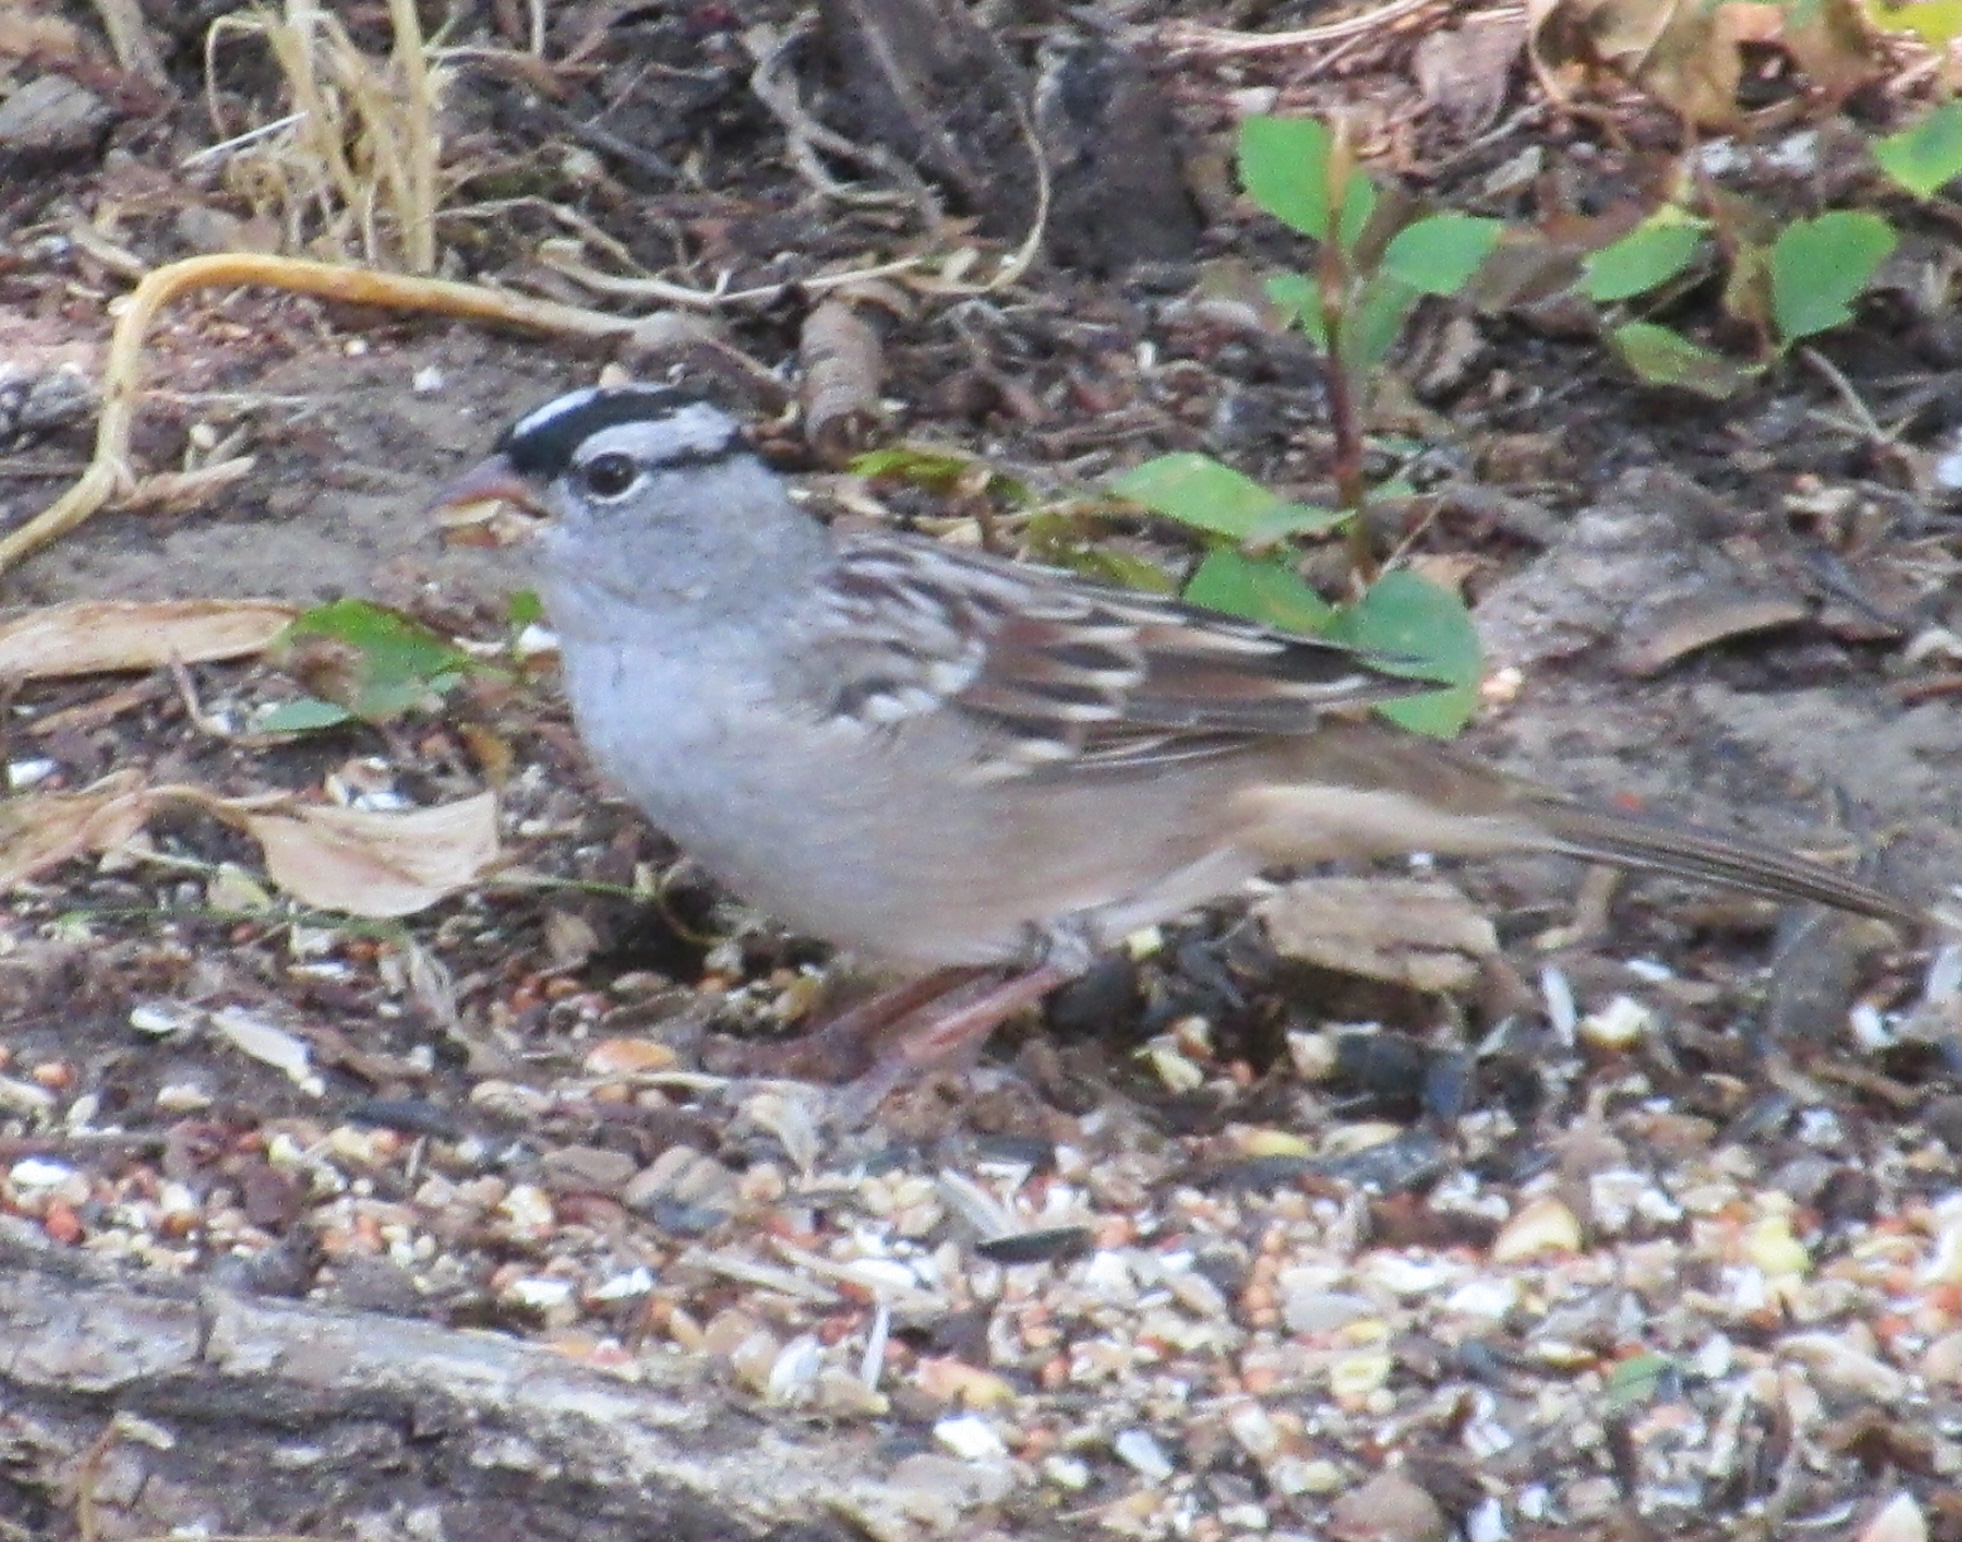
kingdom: Animalia
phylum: Chordata
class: Aves
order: Passeriformes
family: Passerellidae
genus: Zonotrichia
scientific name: Zonotrichia leucophrys
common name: White-crowned sparrow
